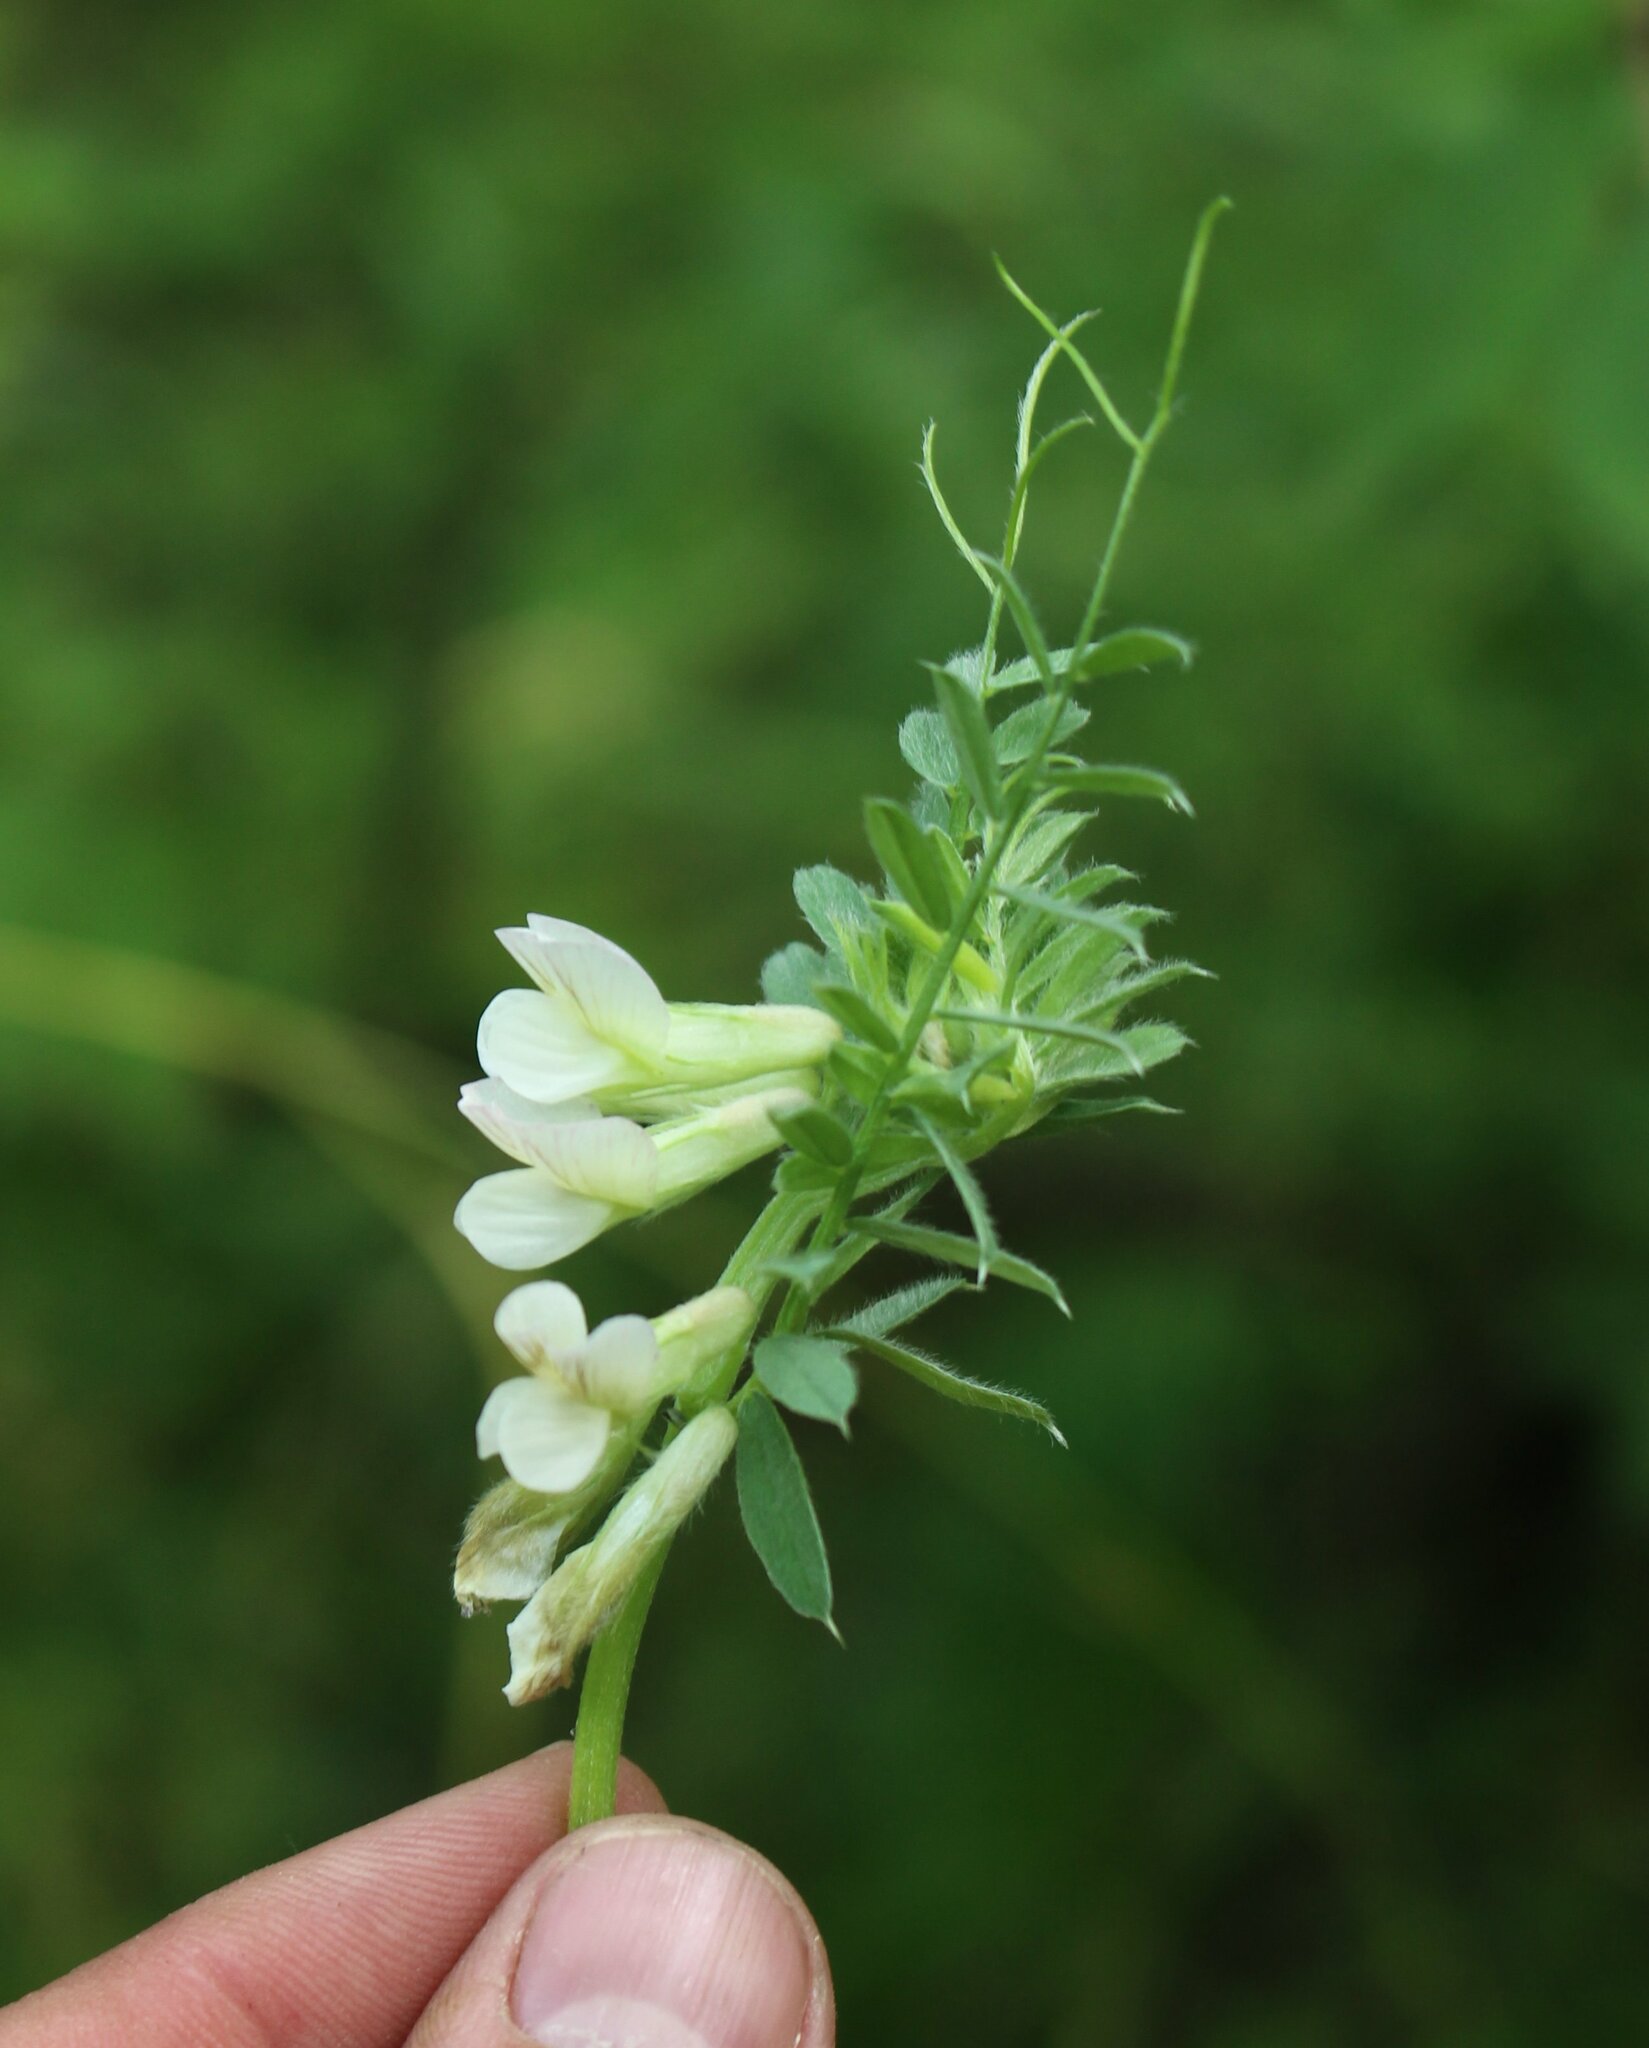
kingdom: Plantae
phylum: Tracheophyta
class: Magnoliopsida
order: Fabales
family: Fabaceae
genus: Vicia
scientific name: Vicia pannonica
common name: Hungarian vetch
